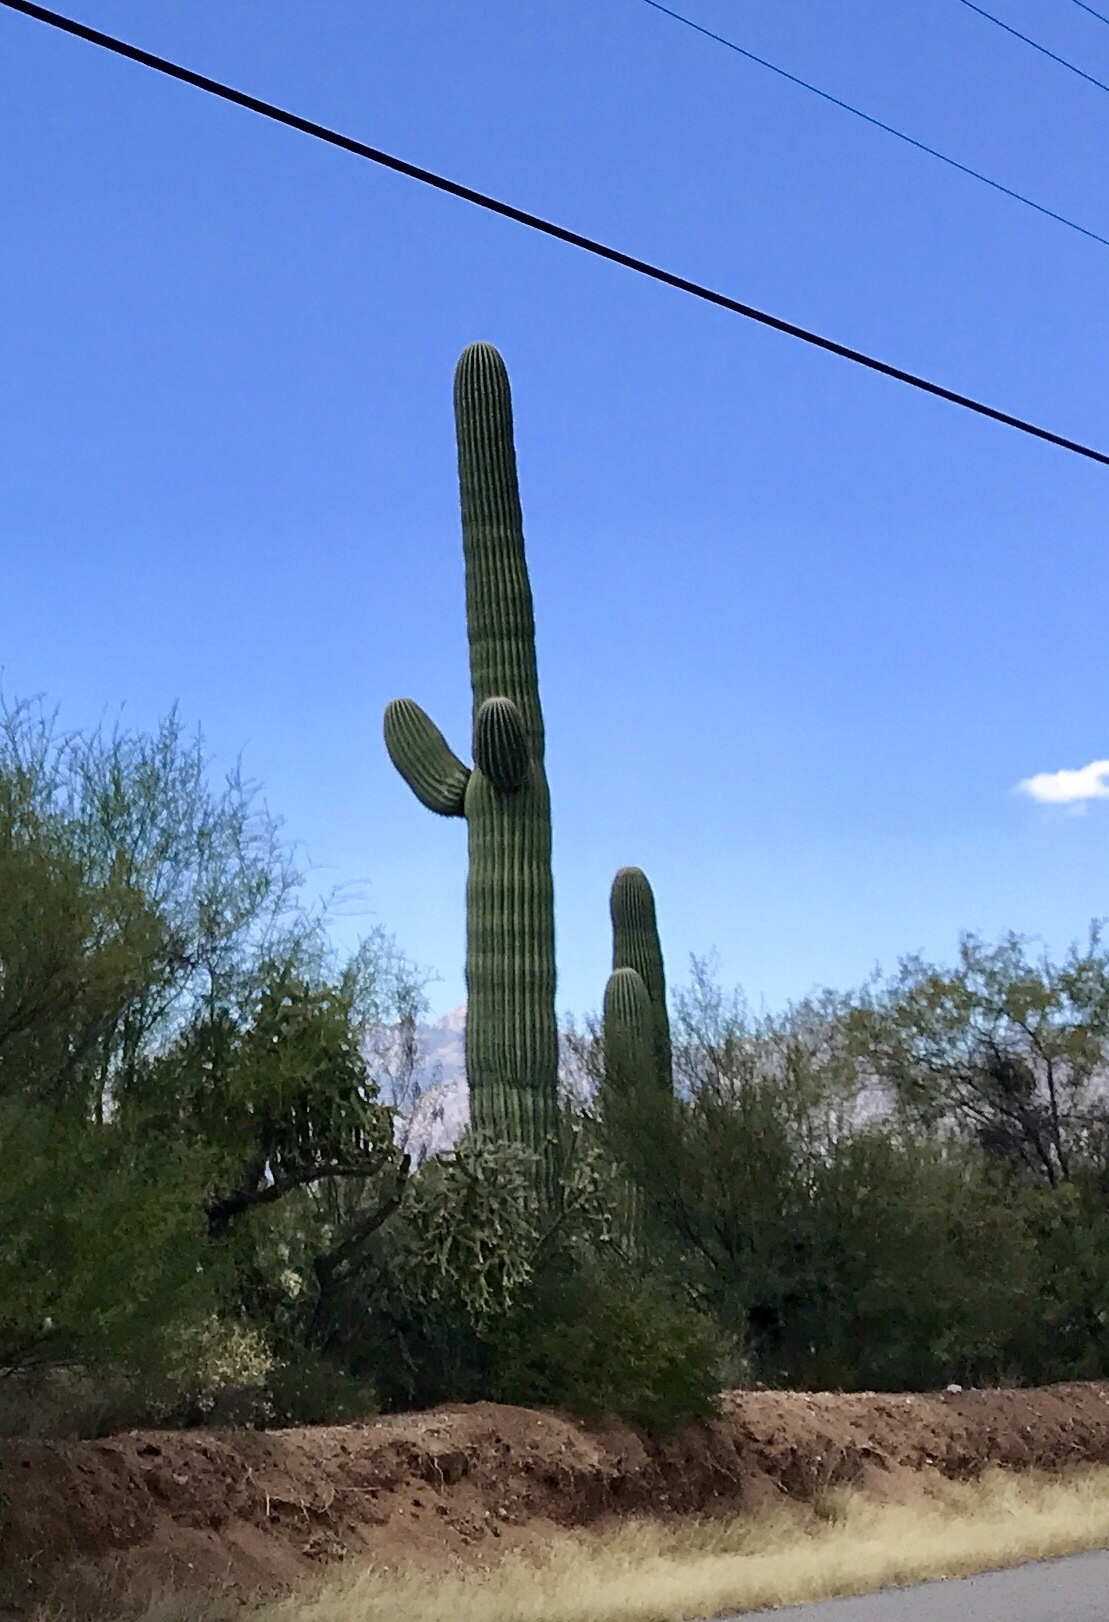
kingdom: Plantae
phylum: Tracheophyta
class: Magnoliopsida
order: Caryophyllales
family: Cactaceae
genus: Carnegiea
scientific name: Carnegiea gigantea
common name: Saguaro
